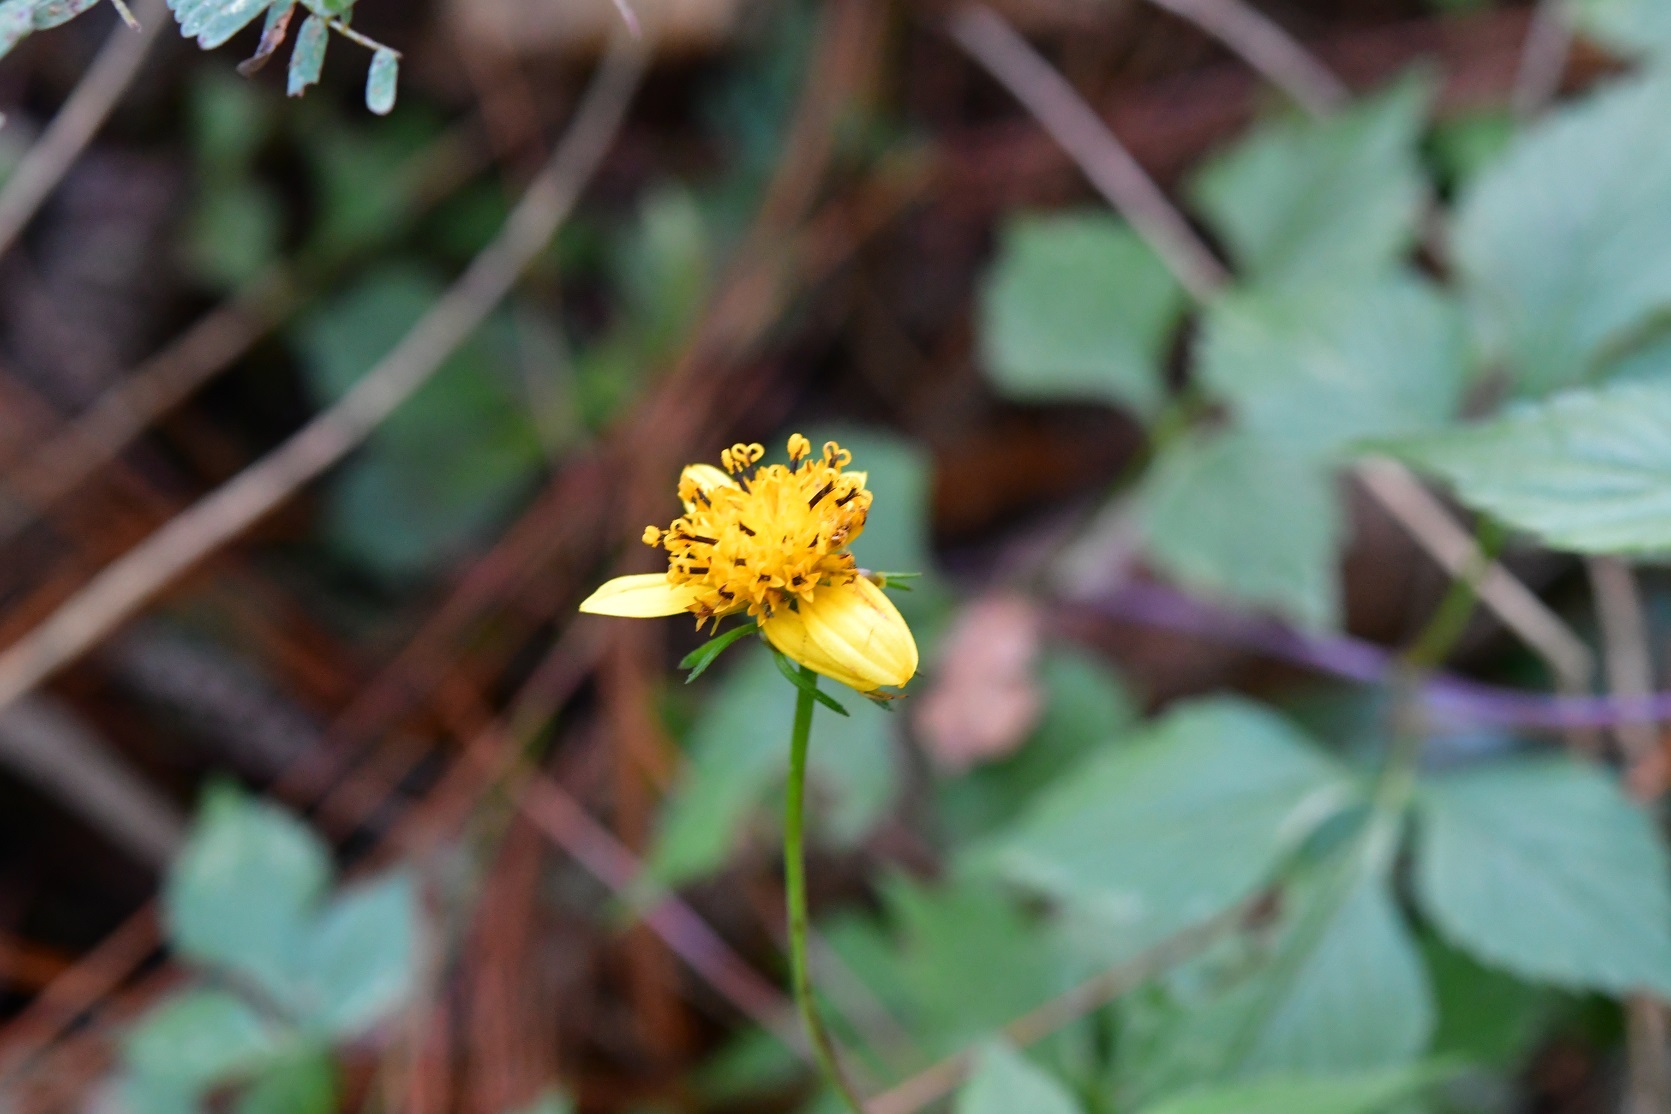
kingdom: Plantae
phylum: Tracheophyta
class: Magnoliopsida
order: Asterales
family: Asteraceae
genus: Bidens
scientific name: Bidens ostruthioides
